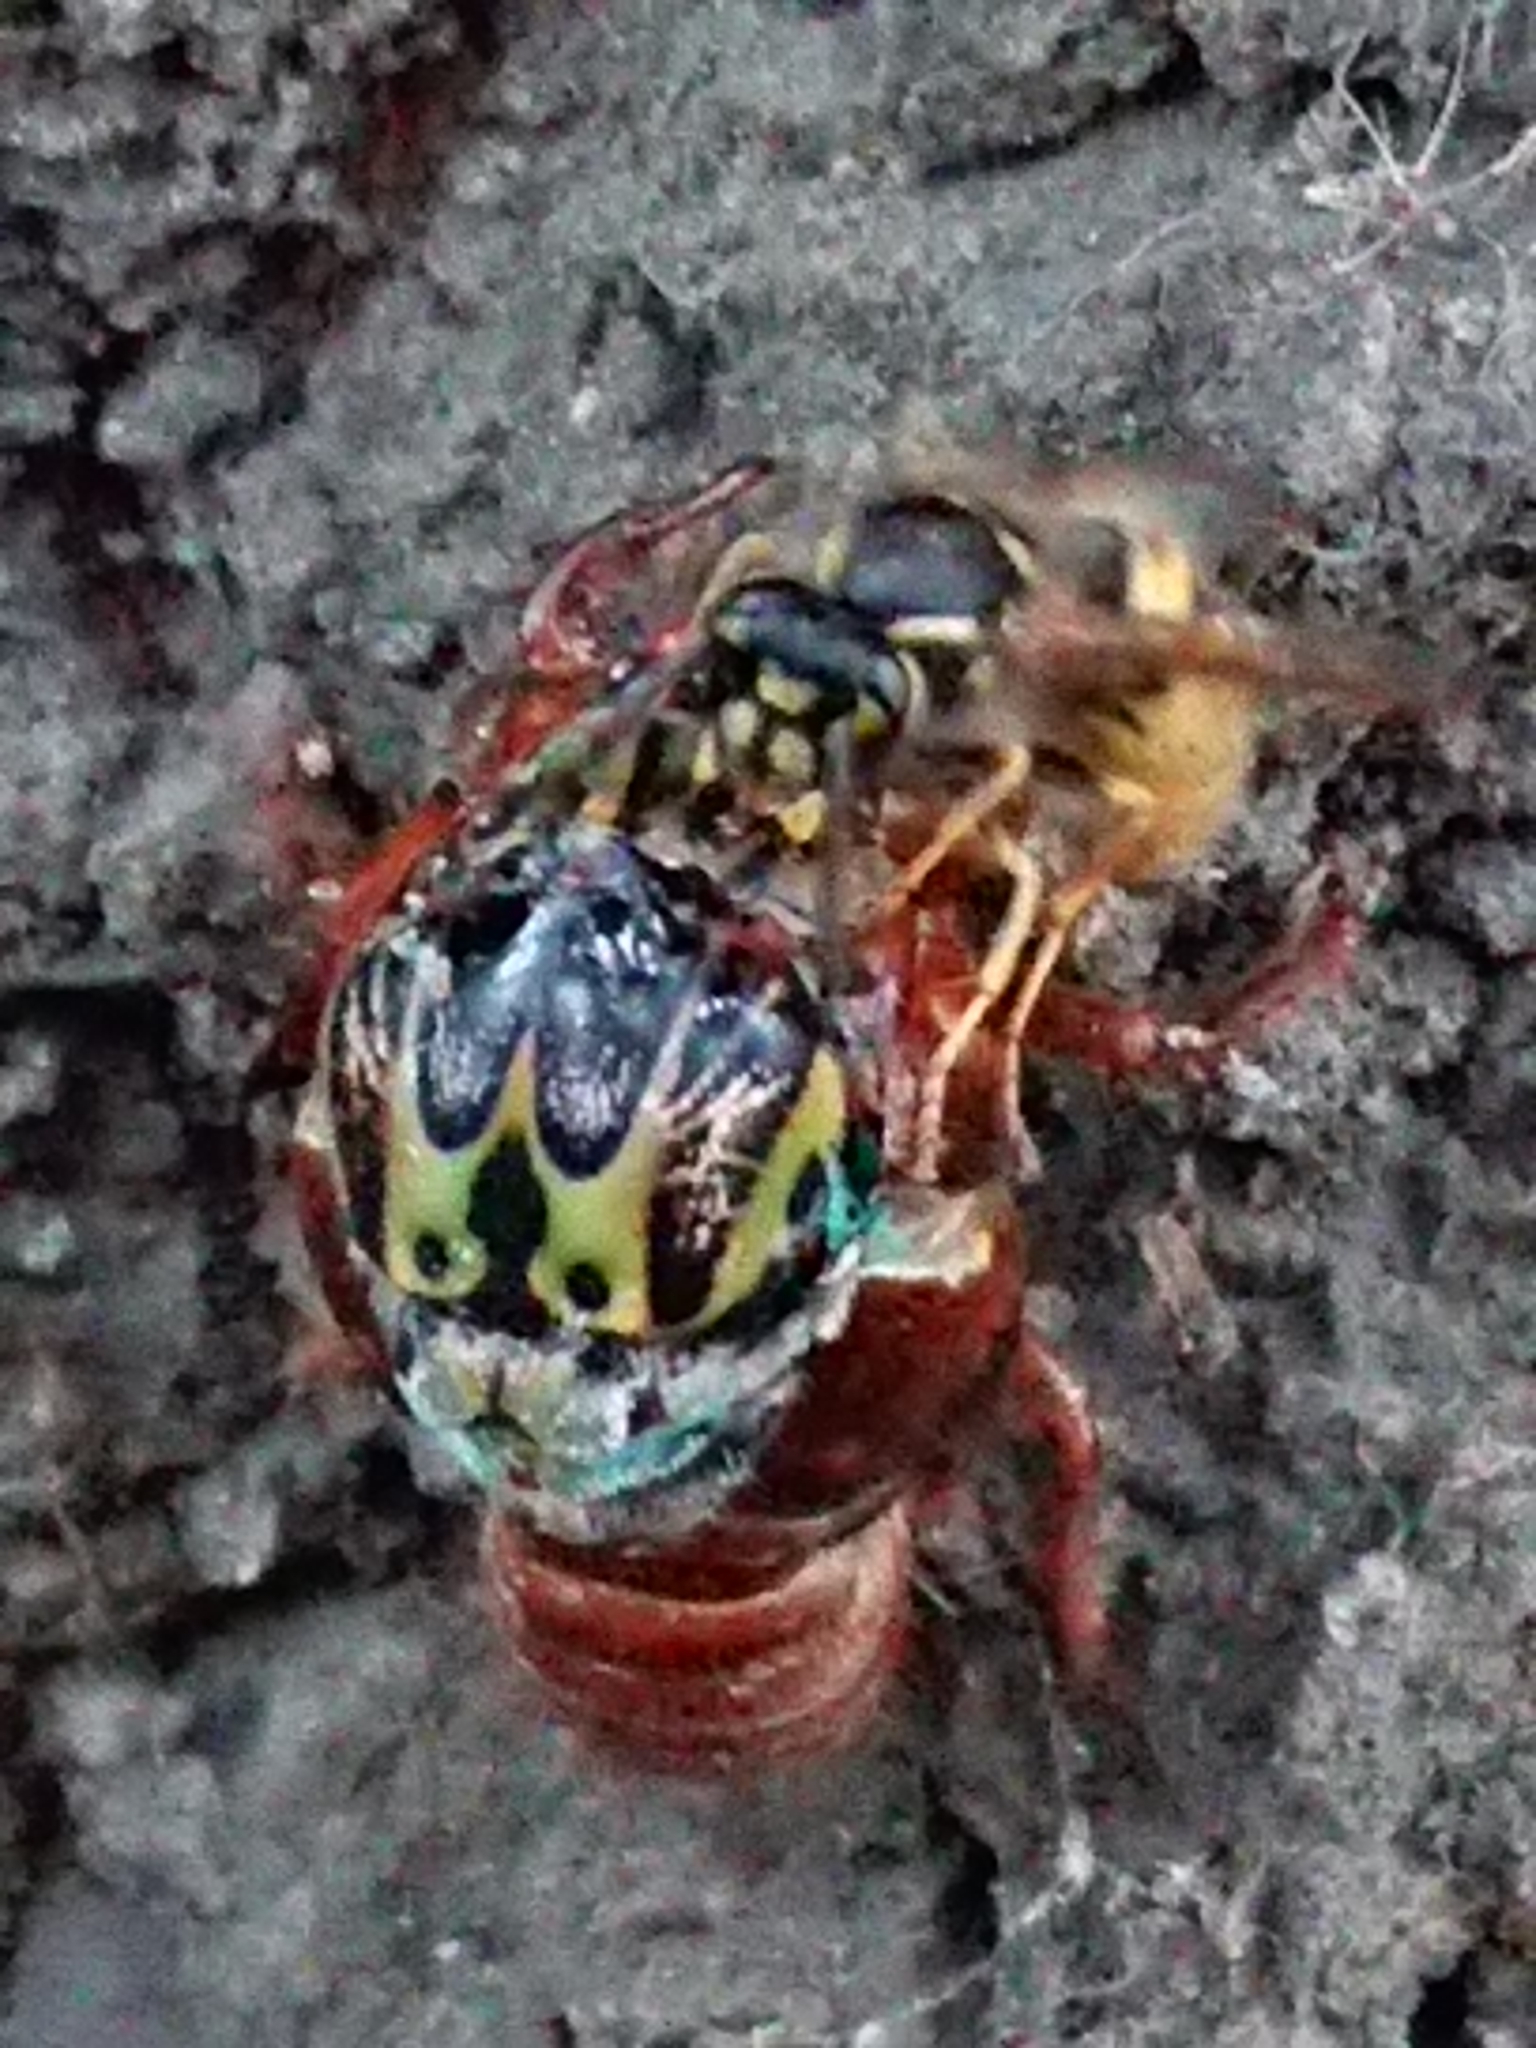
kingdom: Animalia
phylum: Arthropoda
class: Insecta
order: Hemiptera
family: Cicadidae
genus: Amphipsalta
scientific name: Amphipsalta zelandica
